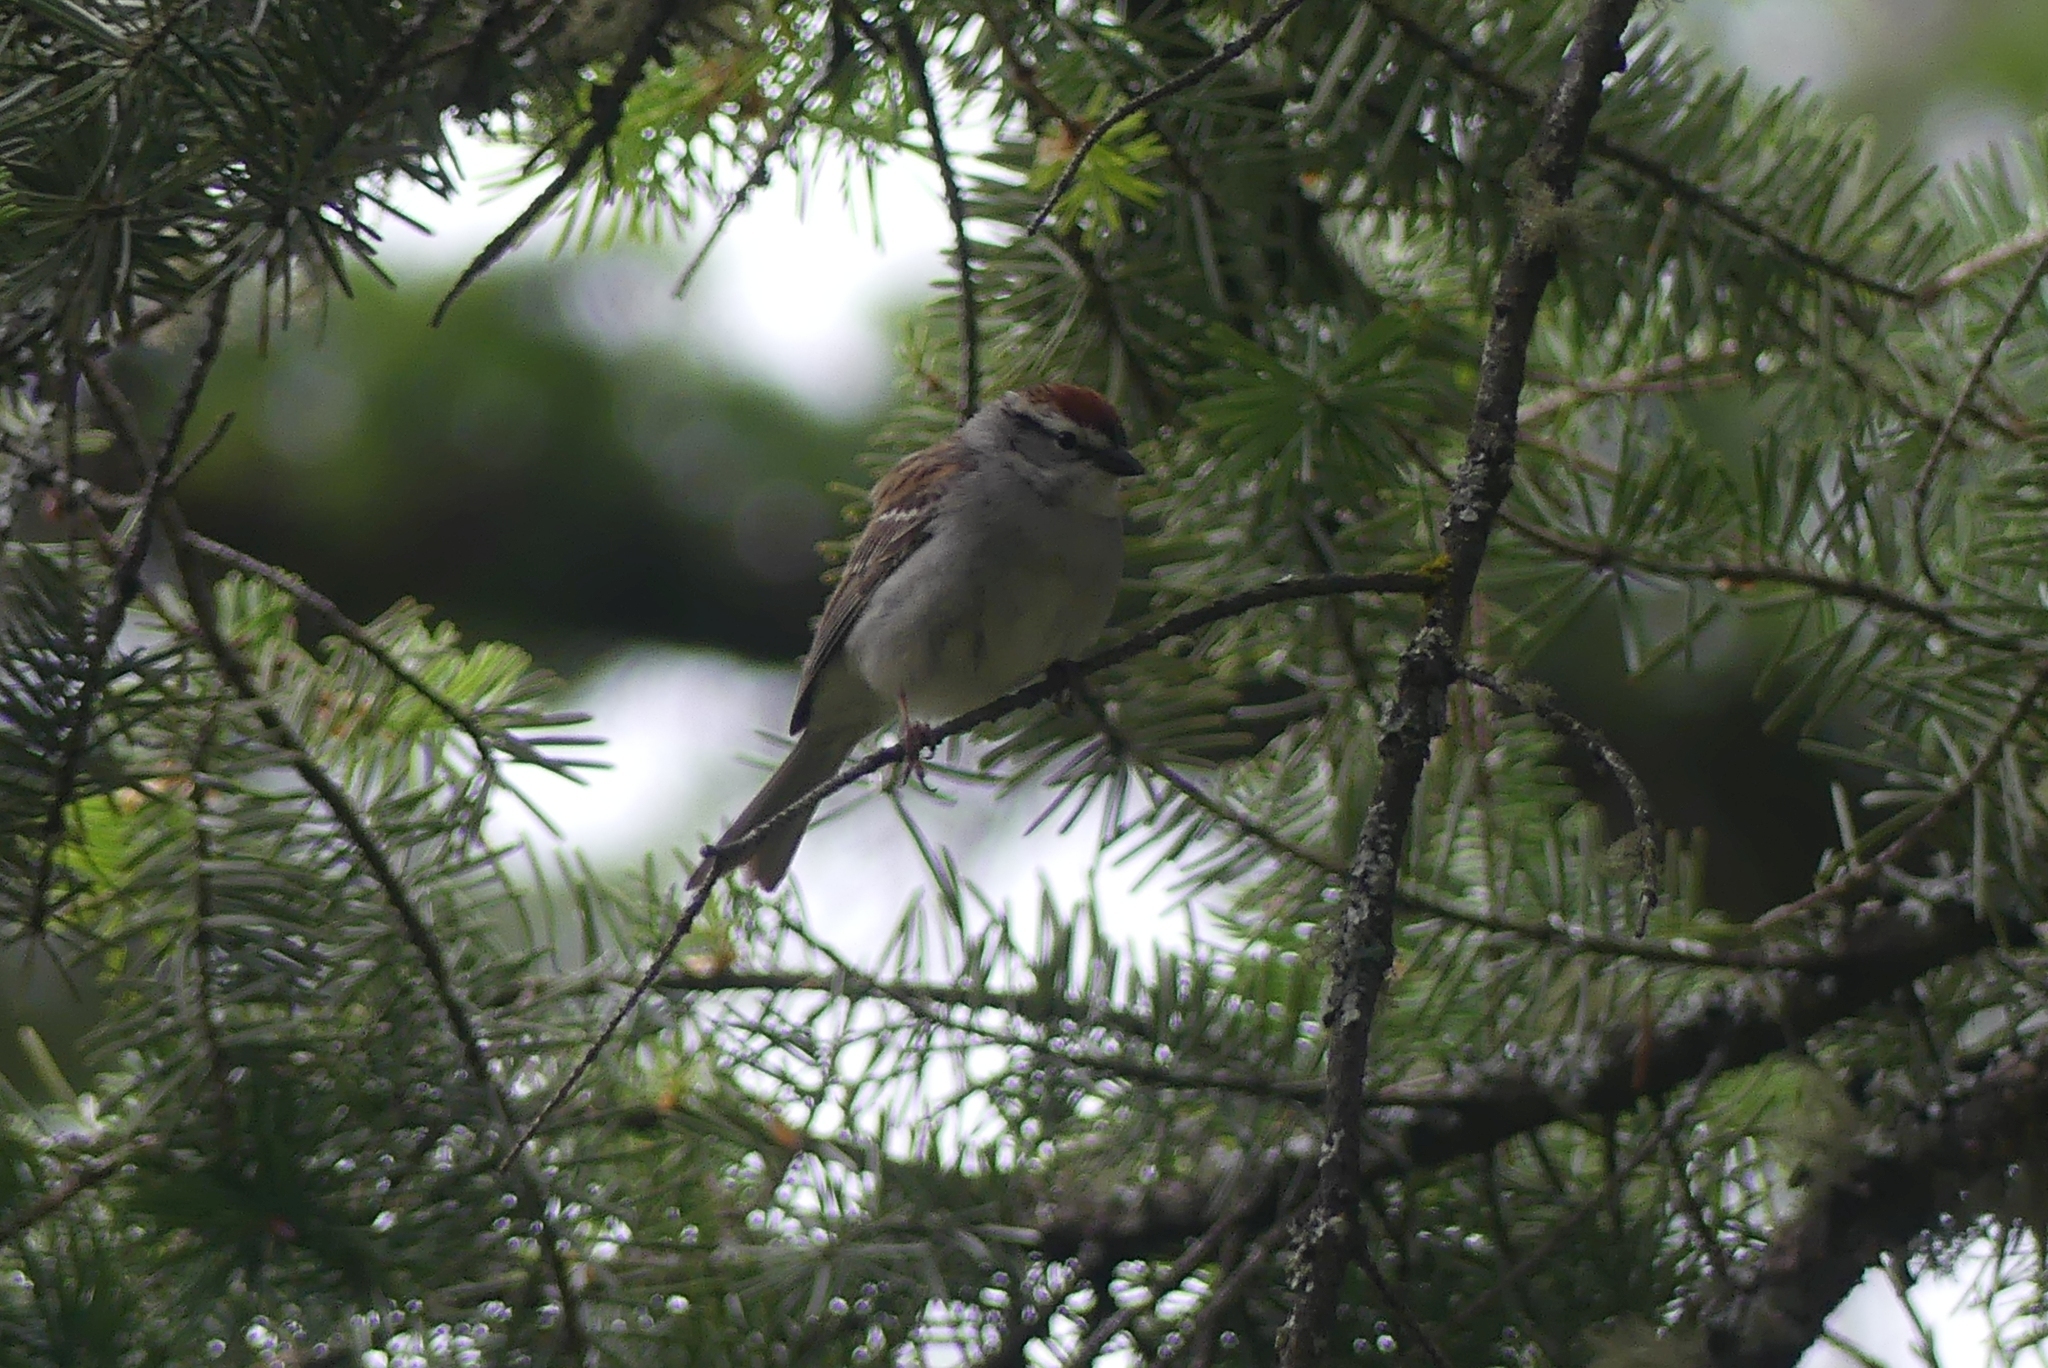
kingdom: Animalia
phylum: Chordata
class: Aves
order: Passeriformes
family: Passerellidae
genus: Spizella
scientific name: Spizella passerina
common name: Chipping sparrow
